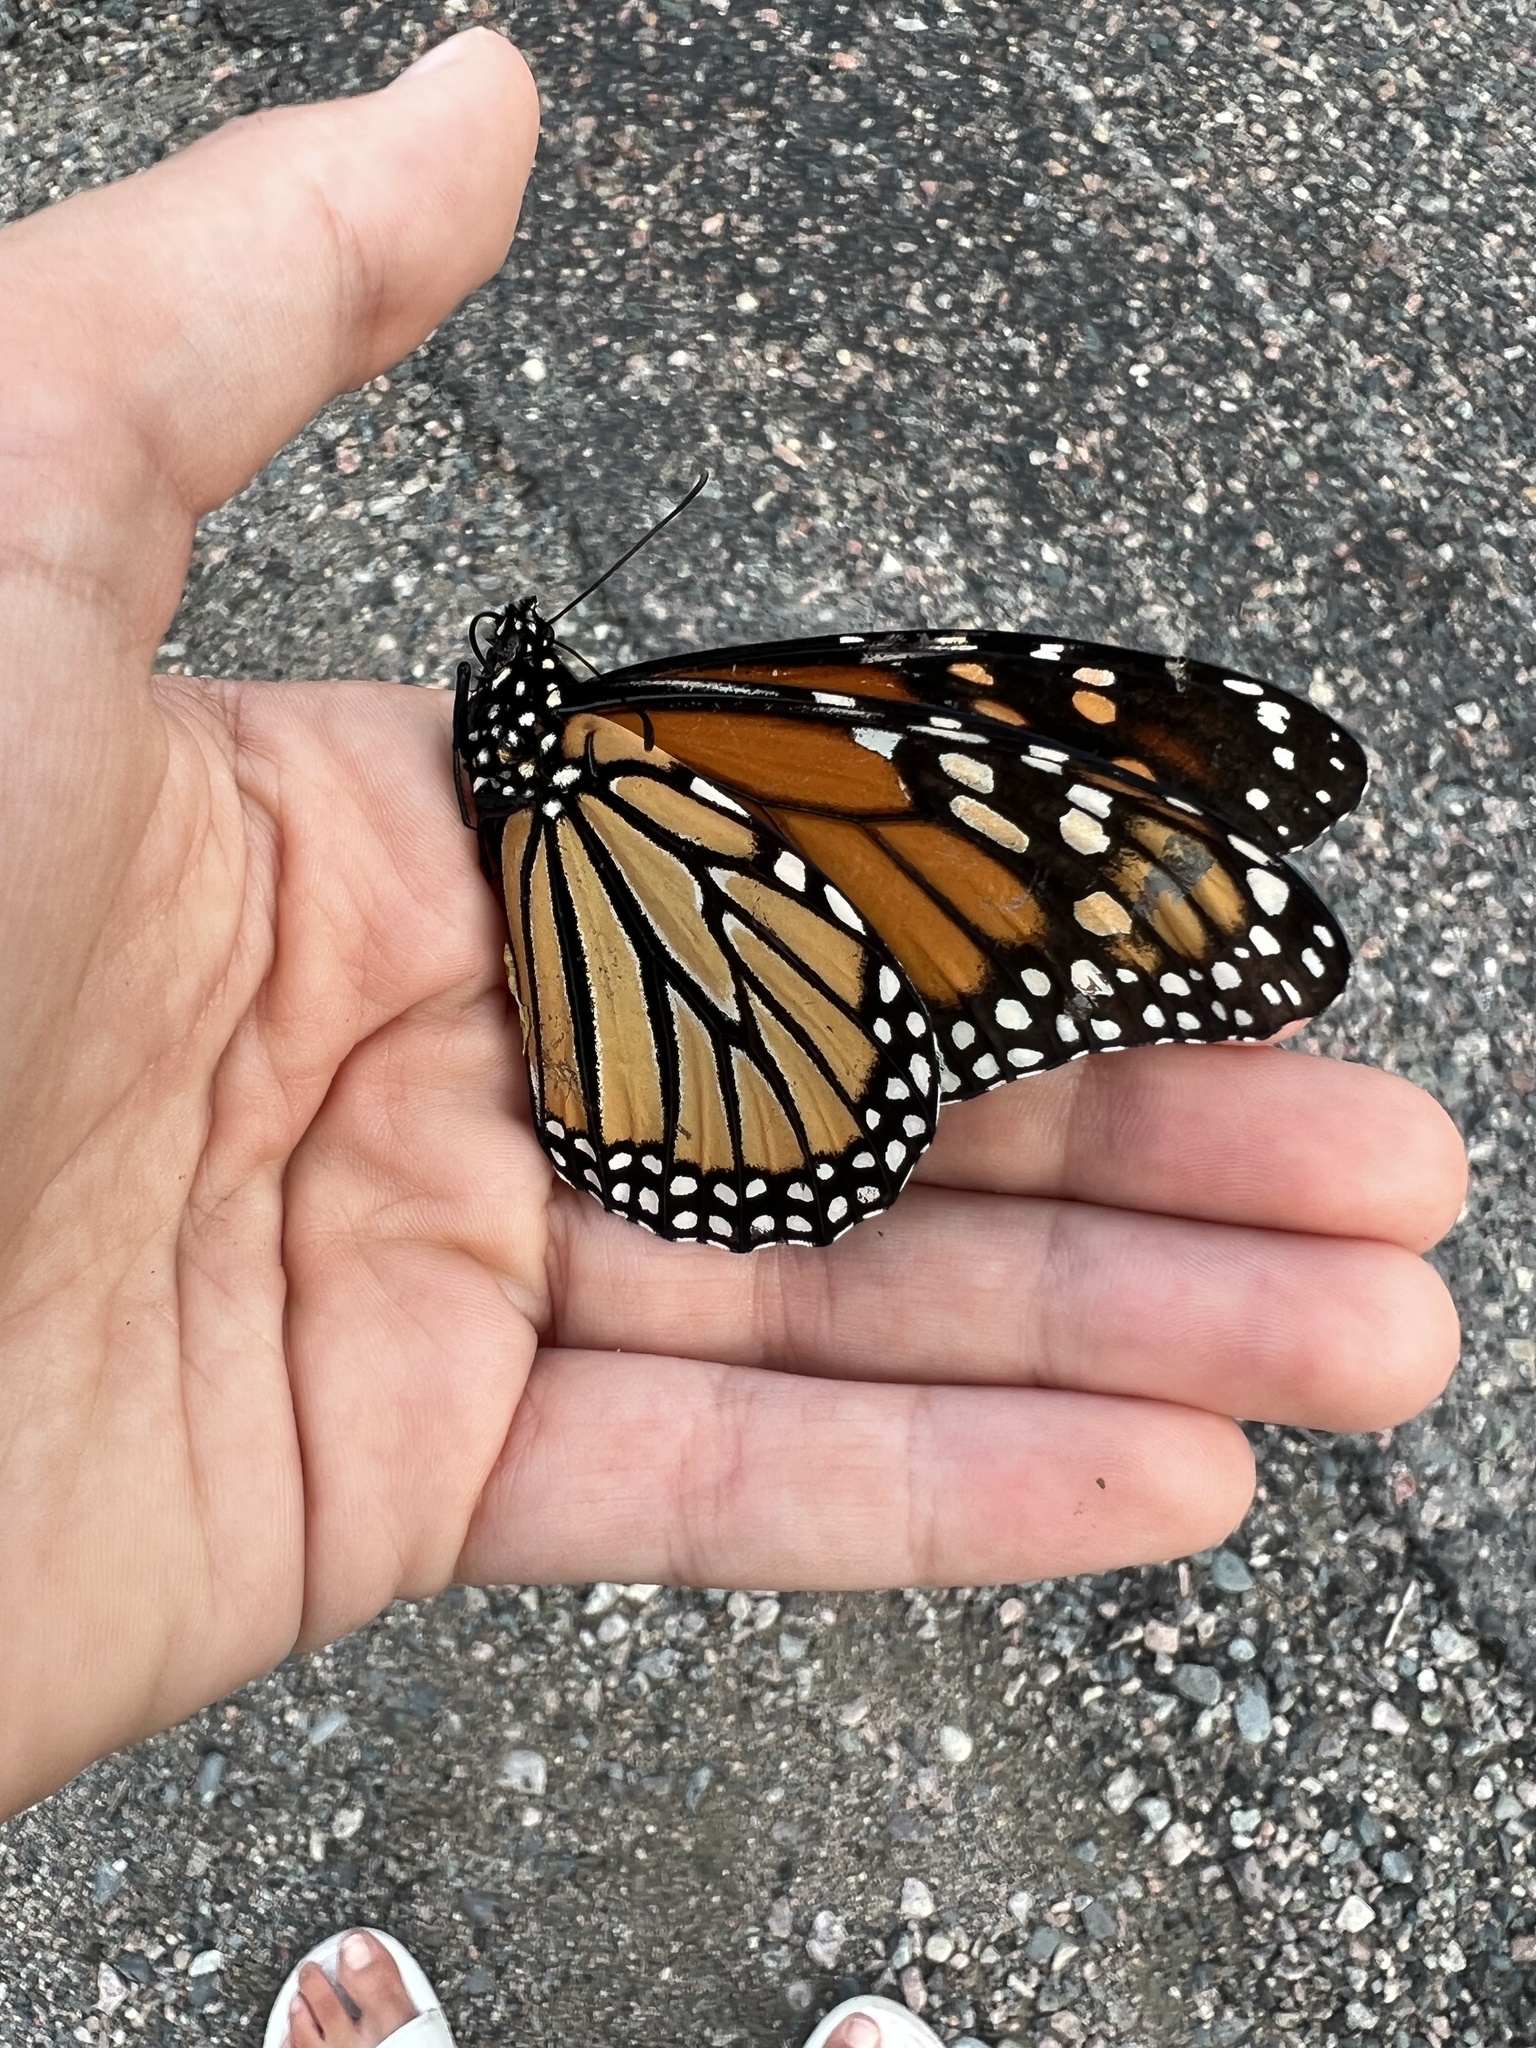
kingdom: Animalia
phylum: Arthropoda
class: Insecta
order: Lepidoptera
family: Nymphalidae
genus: Danaus
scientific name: Danaus plexippus
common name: Monarch
